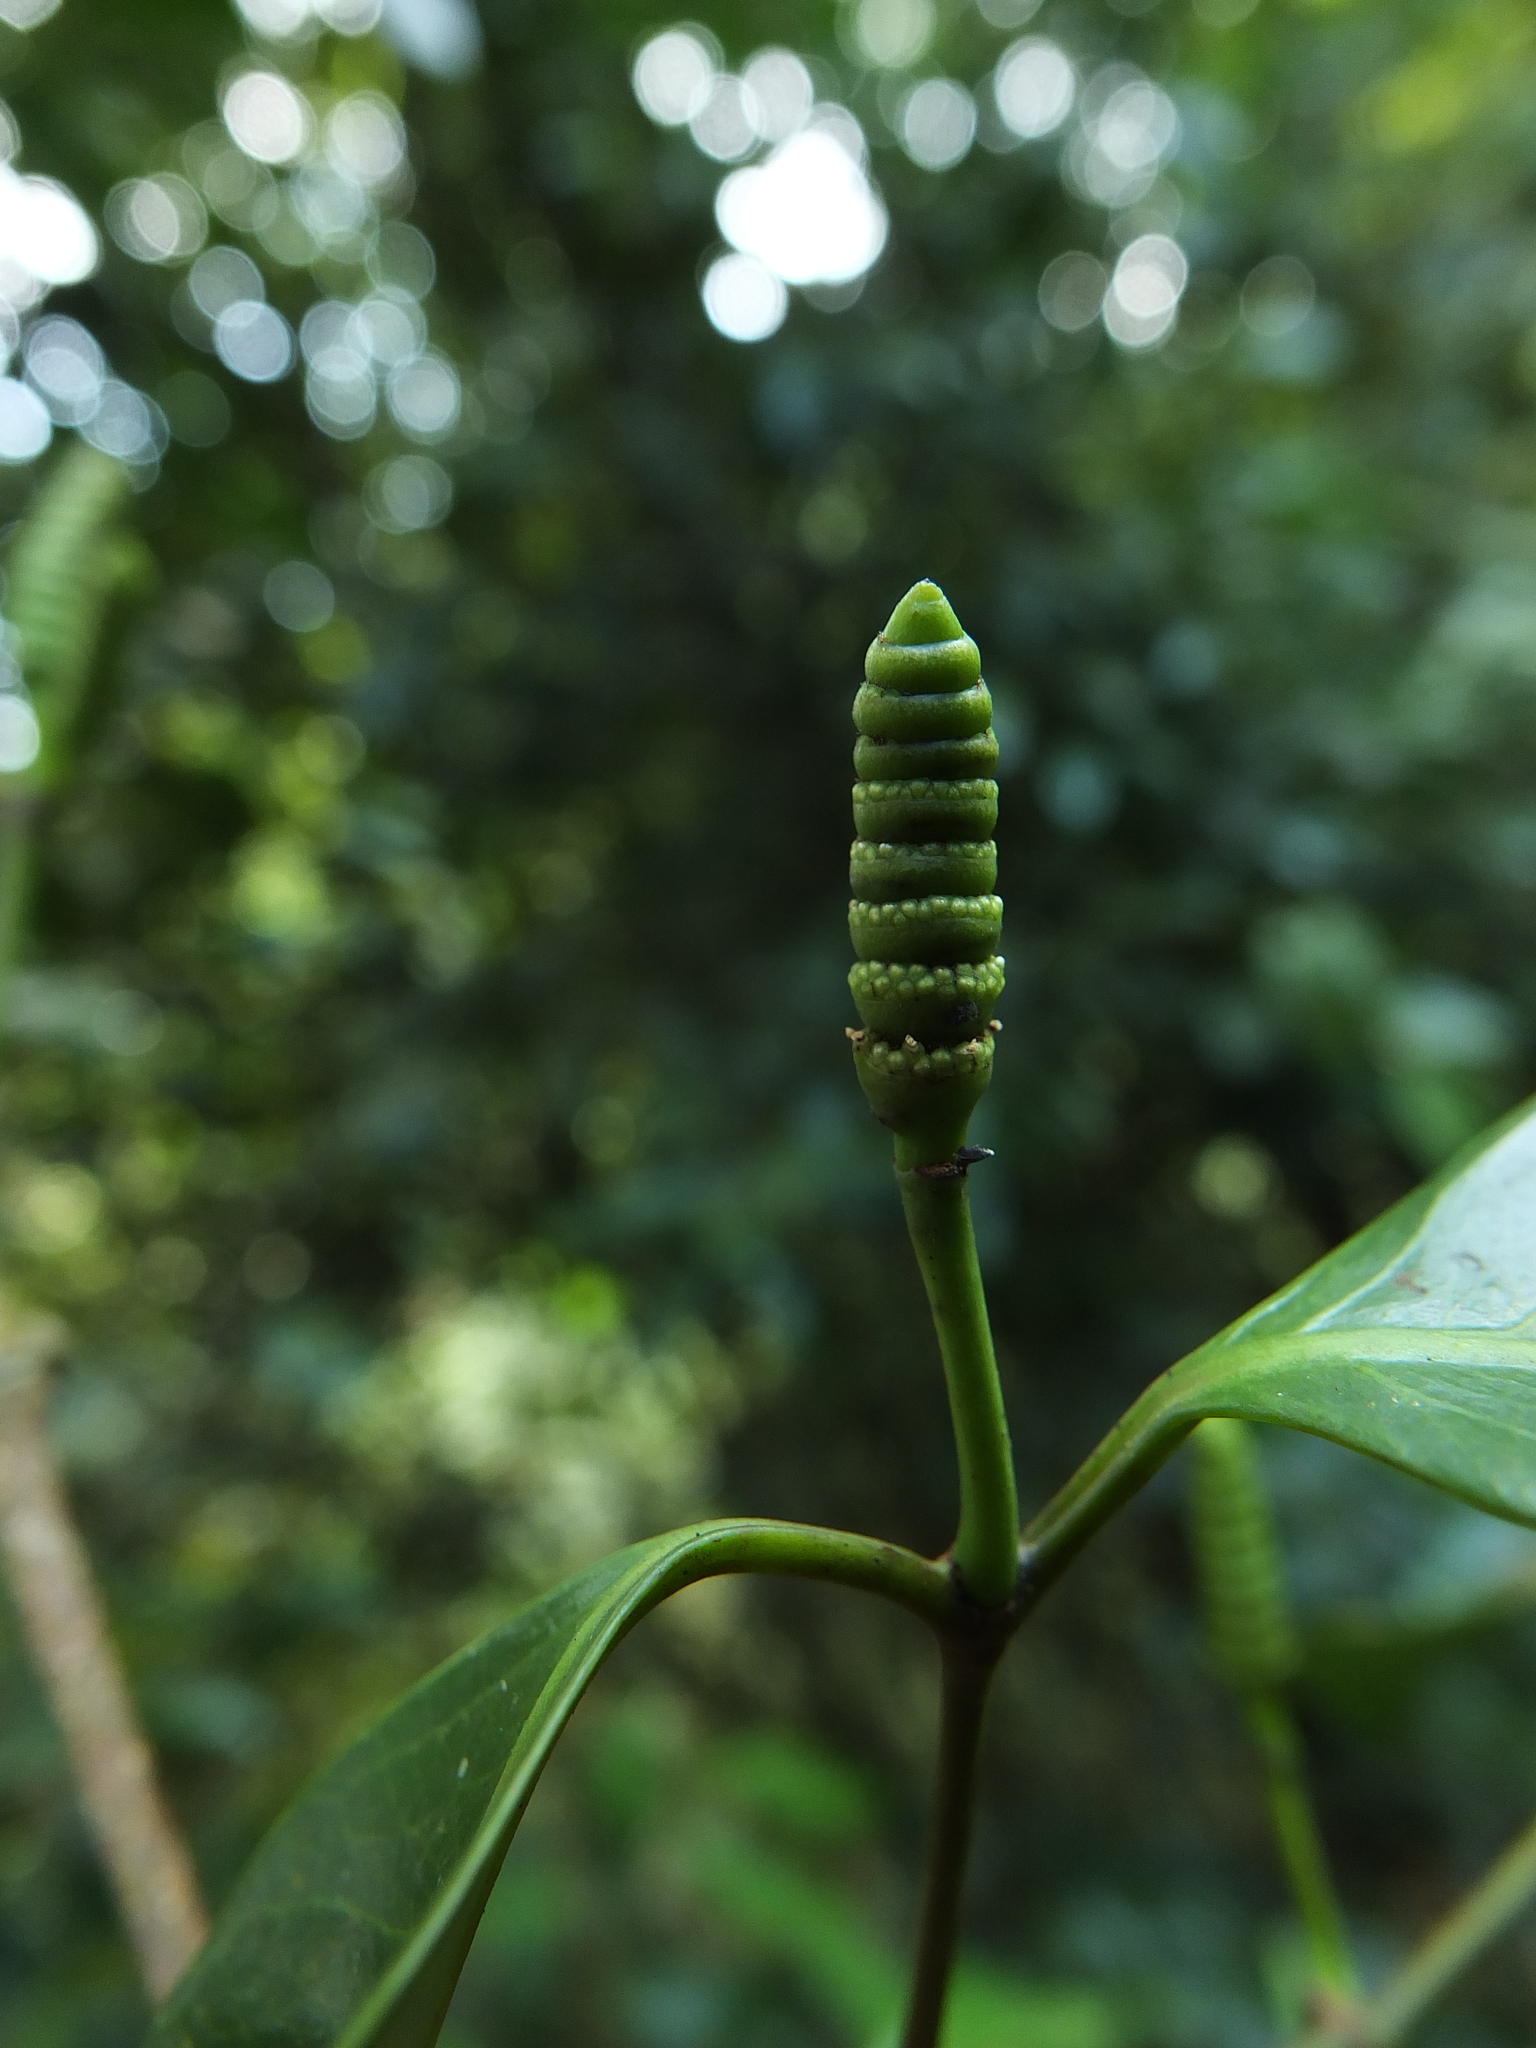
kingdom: Plantae
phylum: Tracheophyta
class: Gnetopsida
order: Gnetales
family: Gnetaceae
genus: Gnetum
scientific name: Gnetum edule
